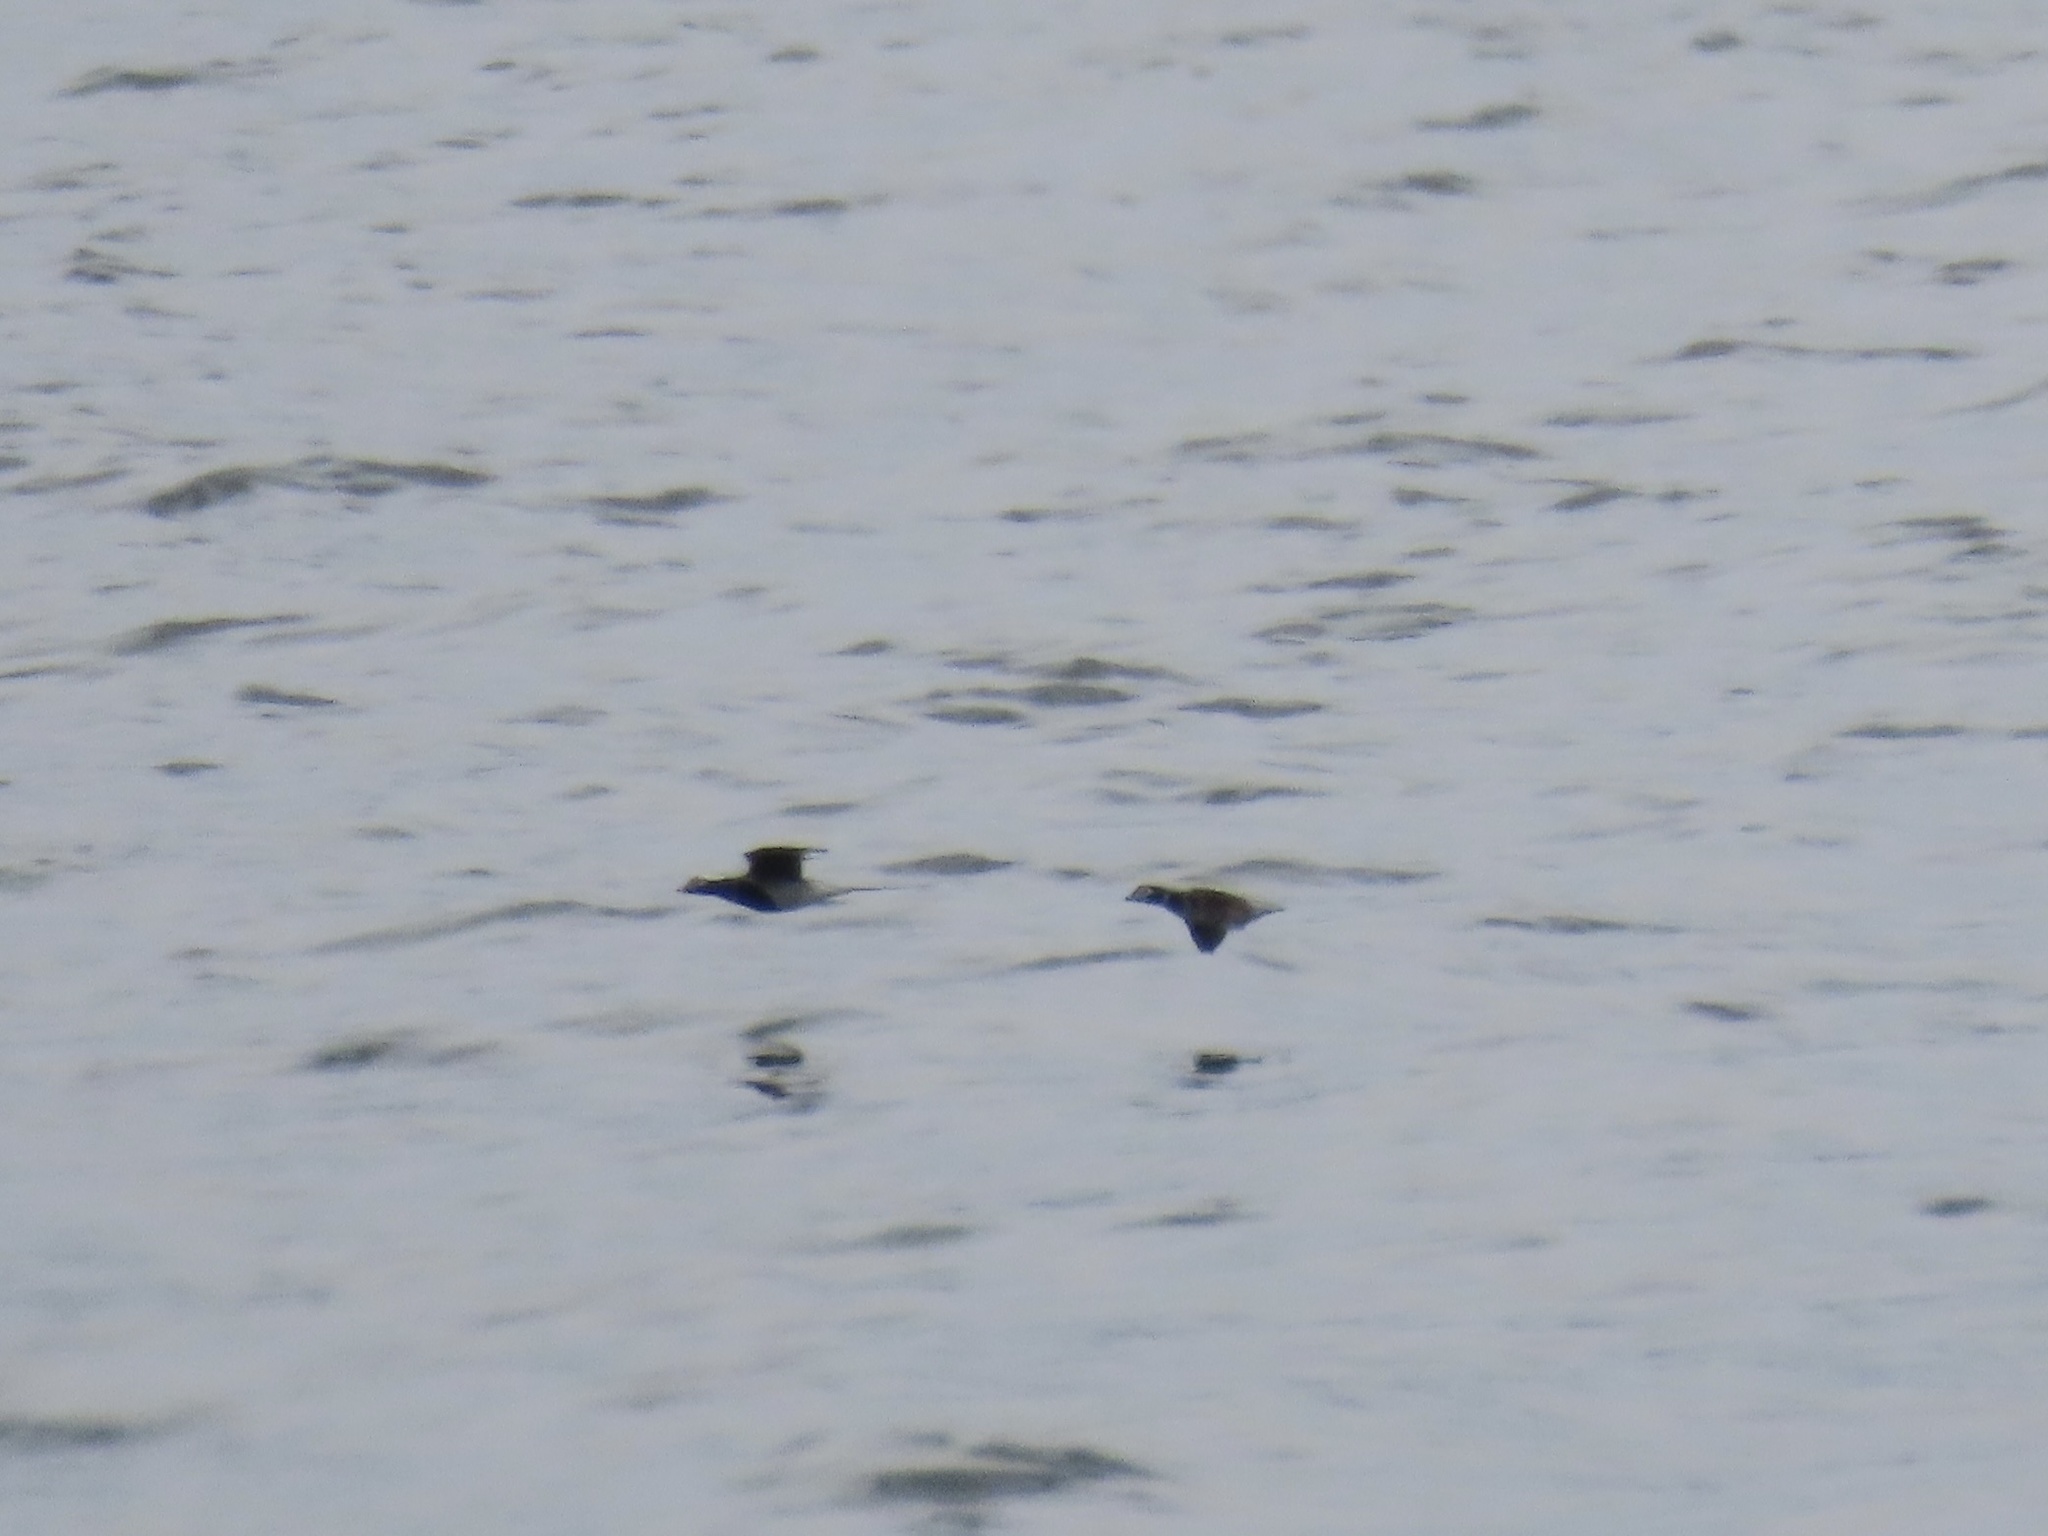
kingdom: Animalia
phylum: Chordata
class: Aves
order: Anseriformes
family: Anatidae
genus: Clangula
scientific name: Clangula hyemalis
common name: Long-tailed duck
